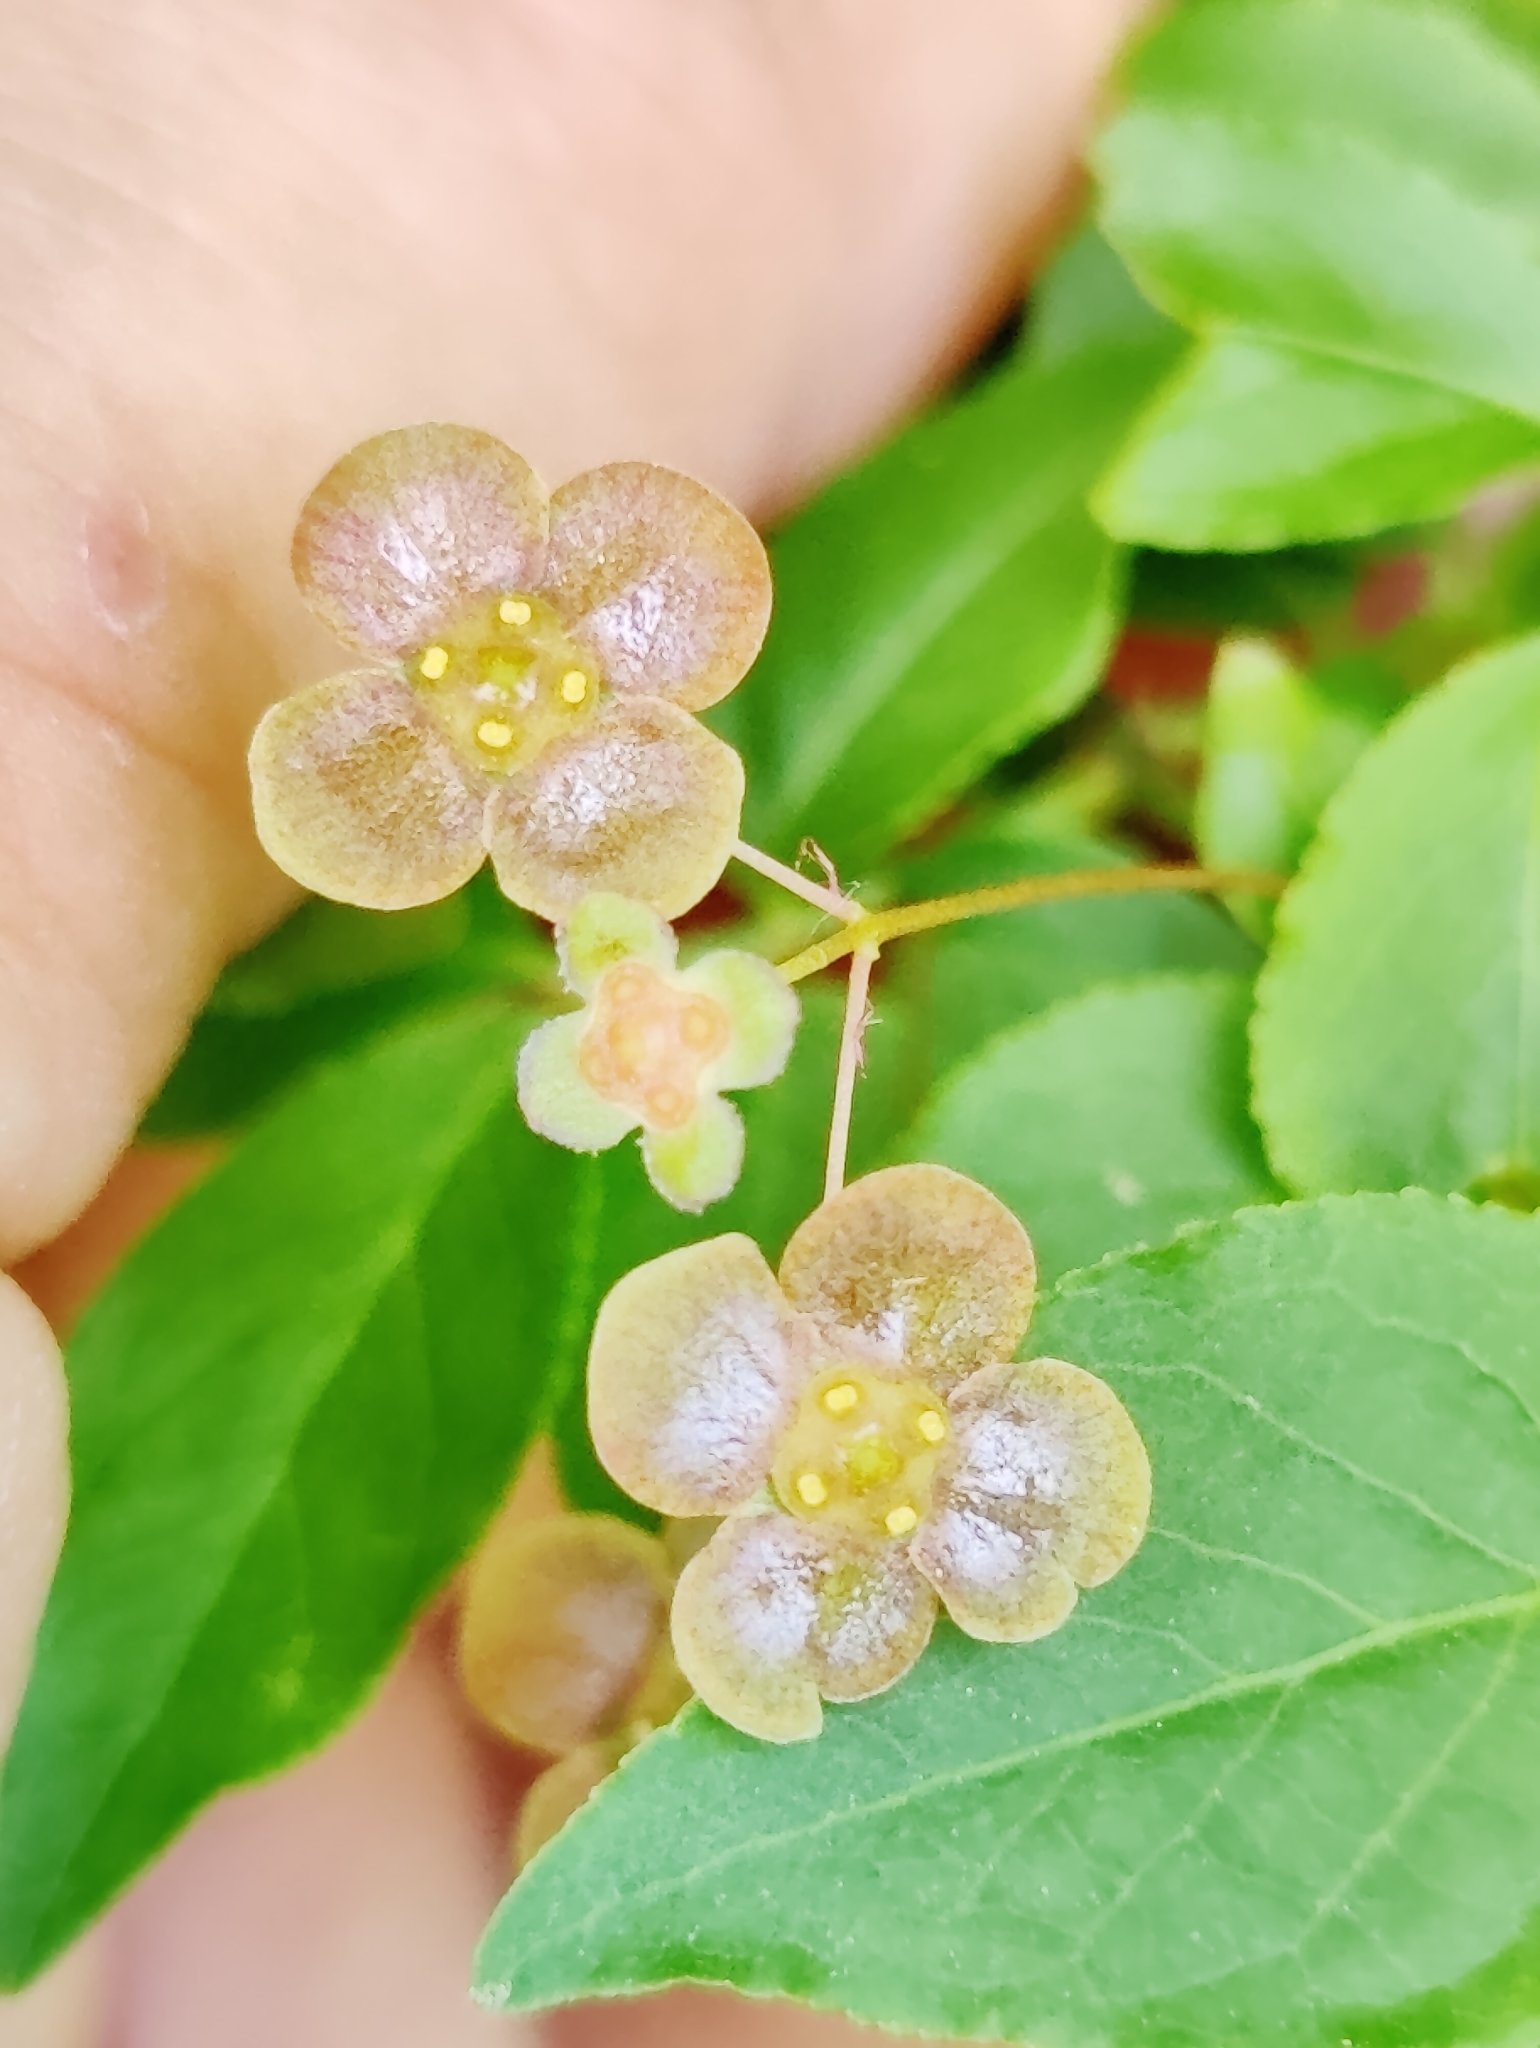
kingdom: Plantae
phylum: Tracheophyta
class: Magnoliopsida
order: Celastrales
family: Celastraceae
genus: Euonymus
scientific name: Euonymus verrucosus
